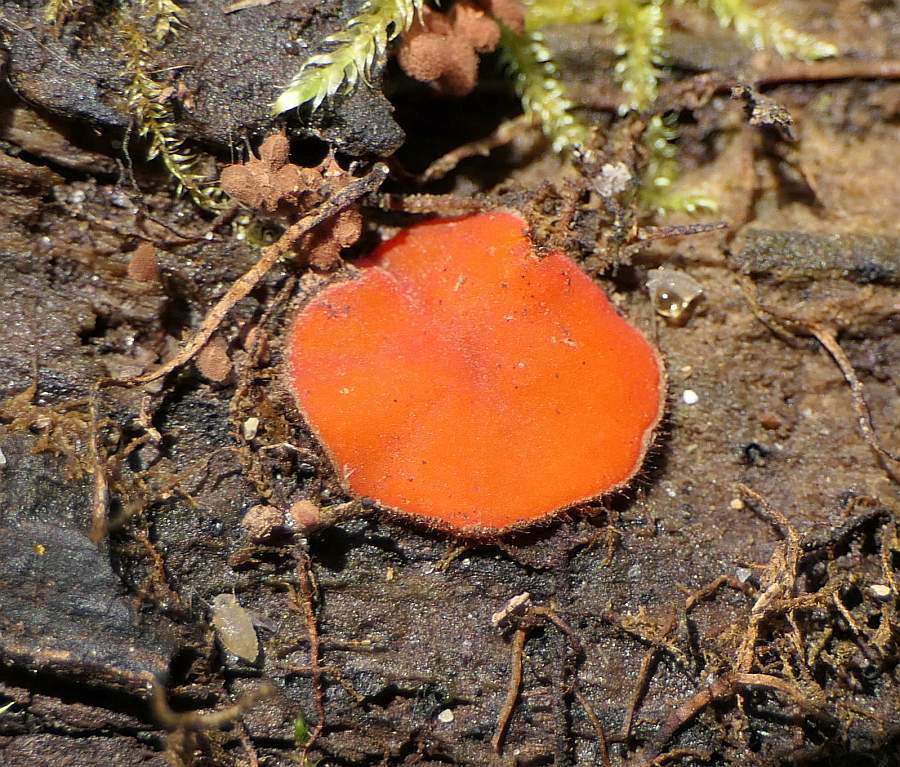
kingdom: Fungi
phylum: Ascomycota
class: Pezizomycetes
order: Pezizales
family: Pyronemataceae
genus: Scutellinia
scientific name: Scutellinia scutellata
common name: Common eyelash
